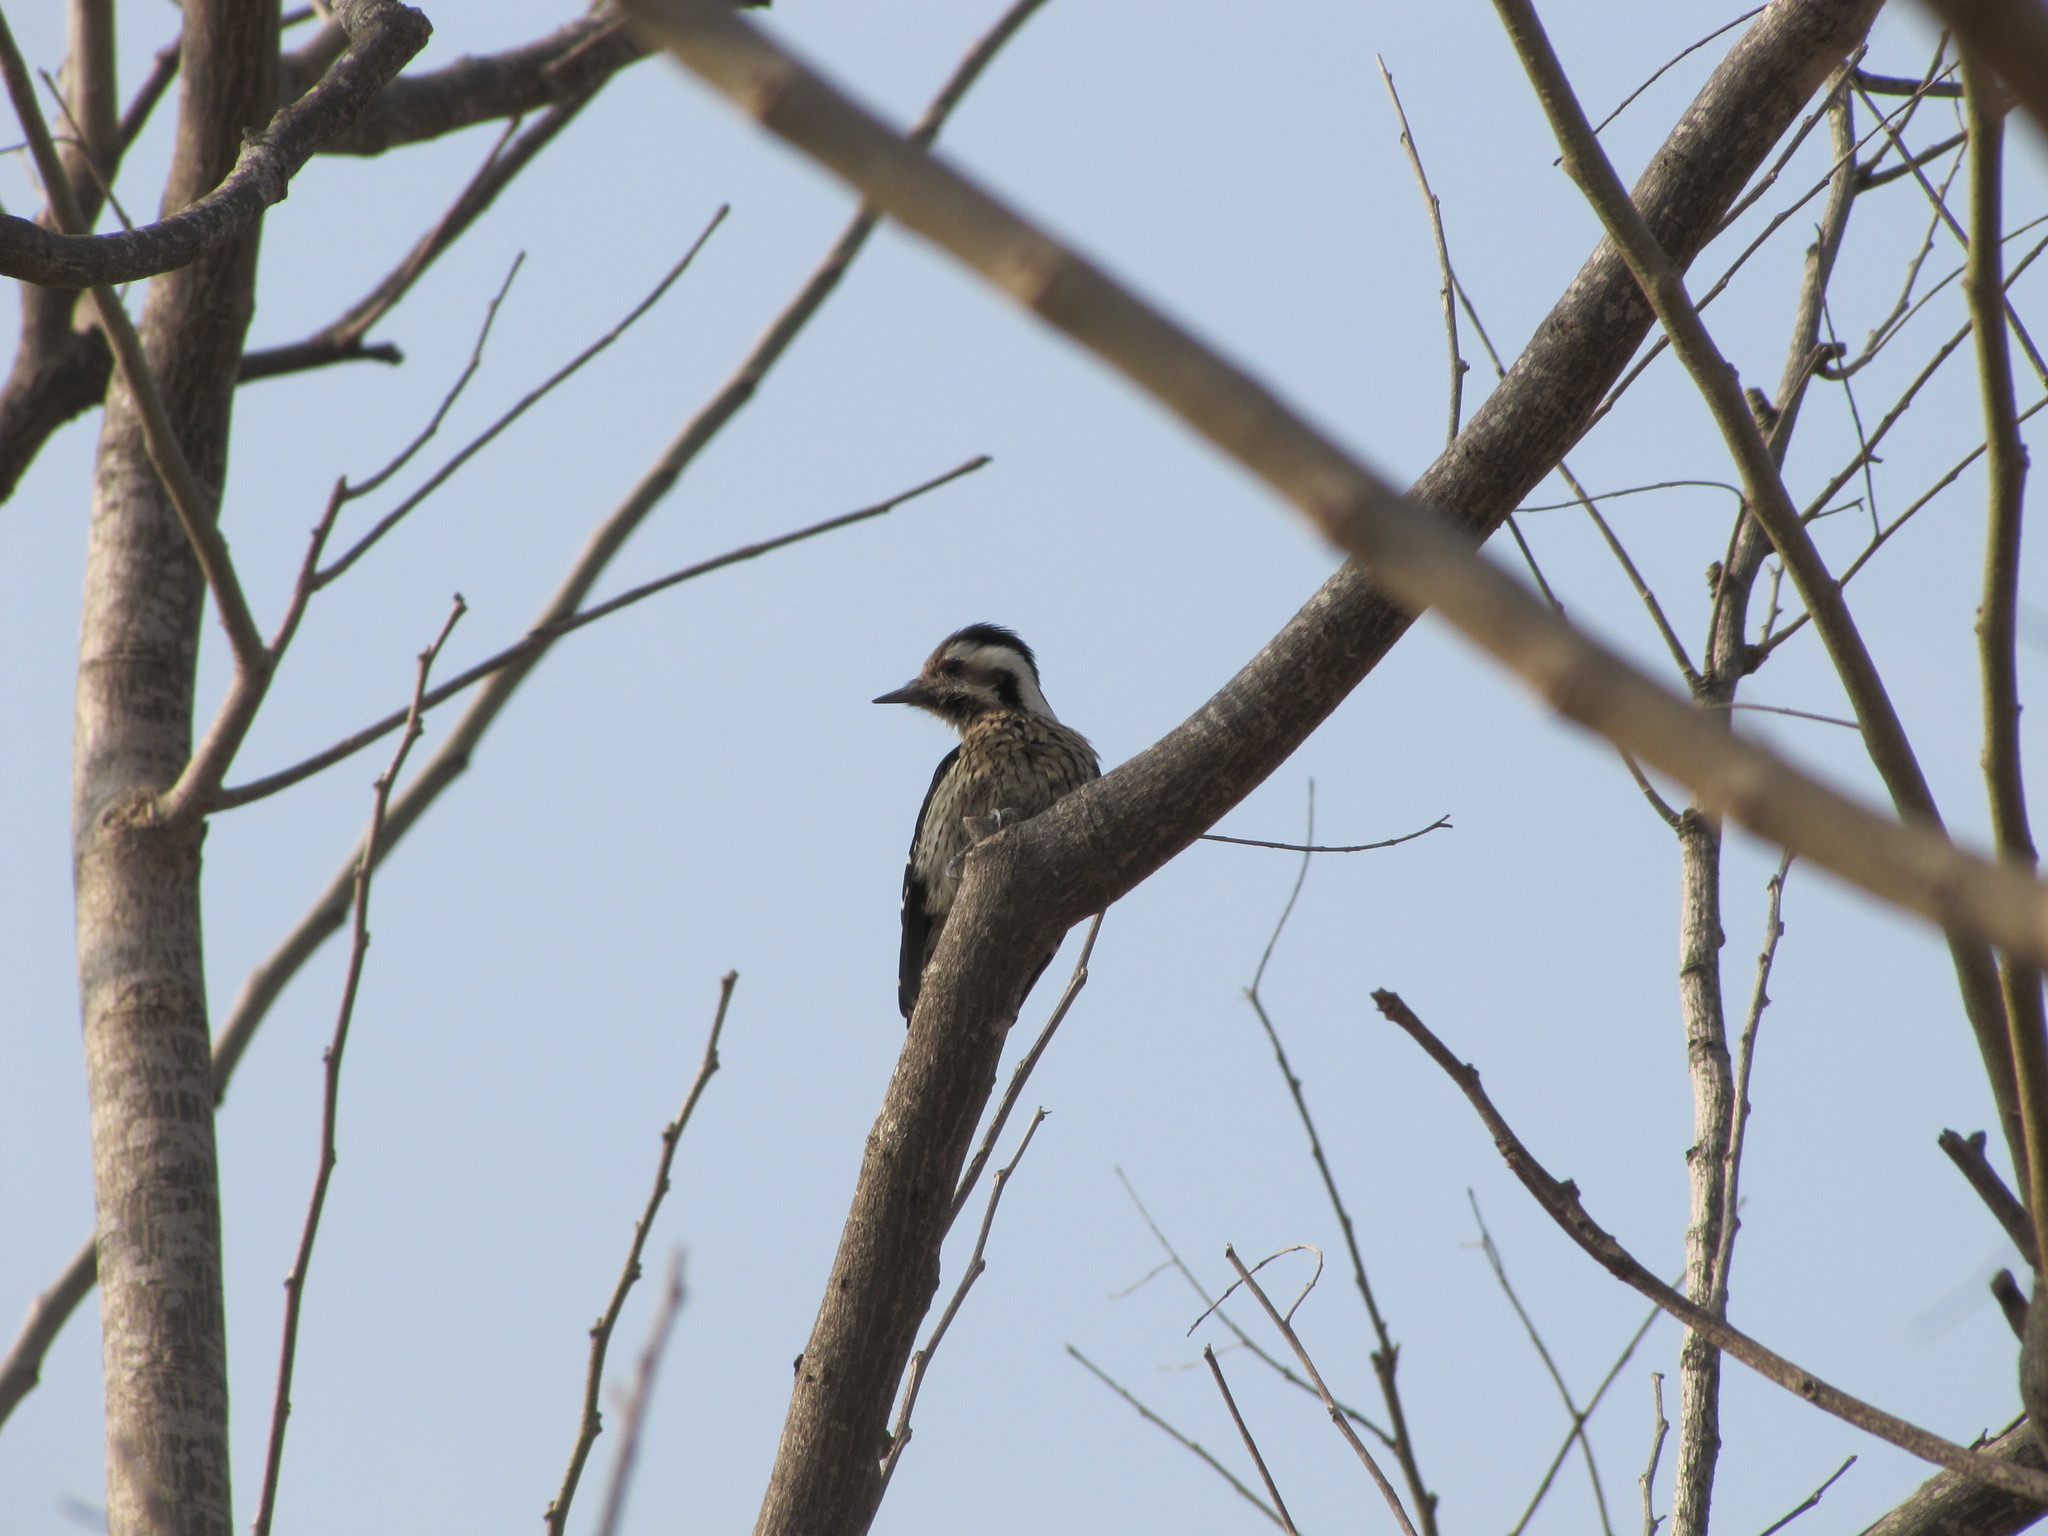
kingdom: Animalia
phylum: Chordata
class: Aves
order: Piciformes
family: Picidae
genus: Yungipicus
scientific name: Yungipicus canicapillus
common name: Grey-capped pygmy woodpecker
